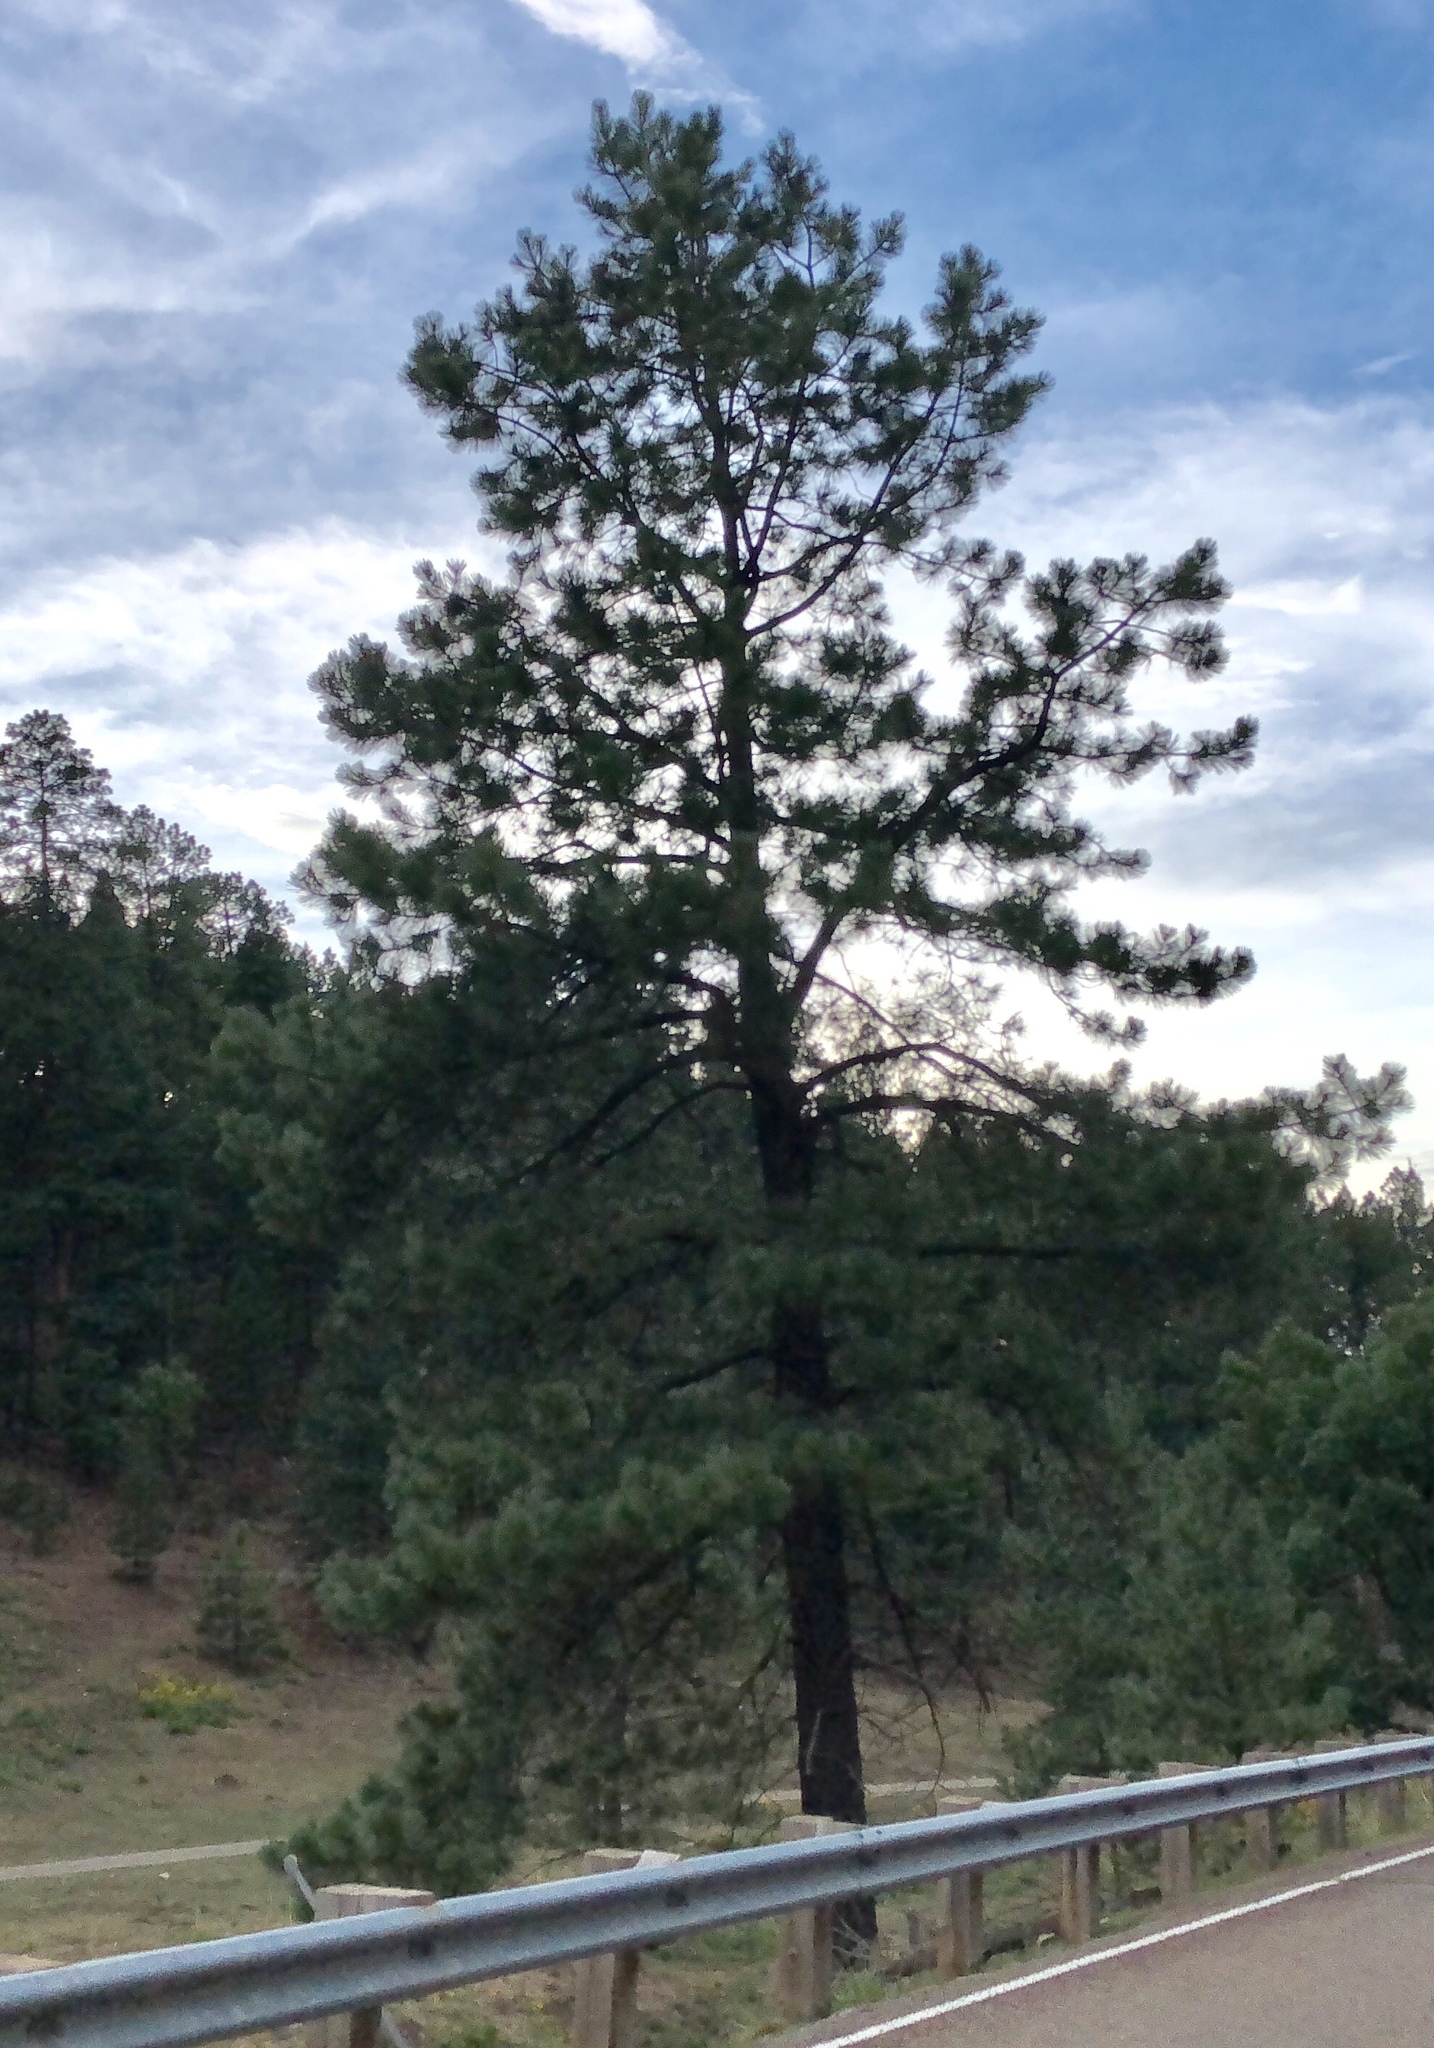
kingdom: Plantae
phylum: Tracheophyta
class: Pinopsida
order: Pinales
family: Pinaceae
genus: Pinus
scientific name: Pinus ponderosa
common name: Western yellow-pine
